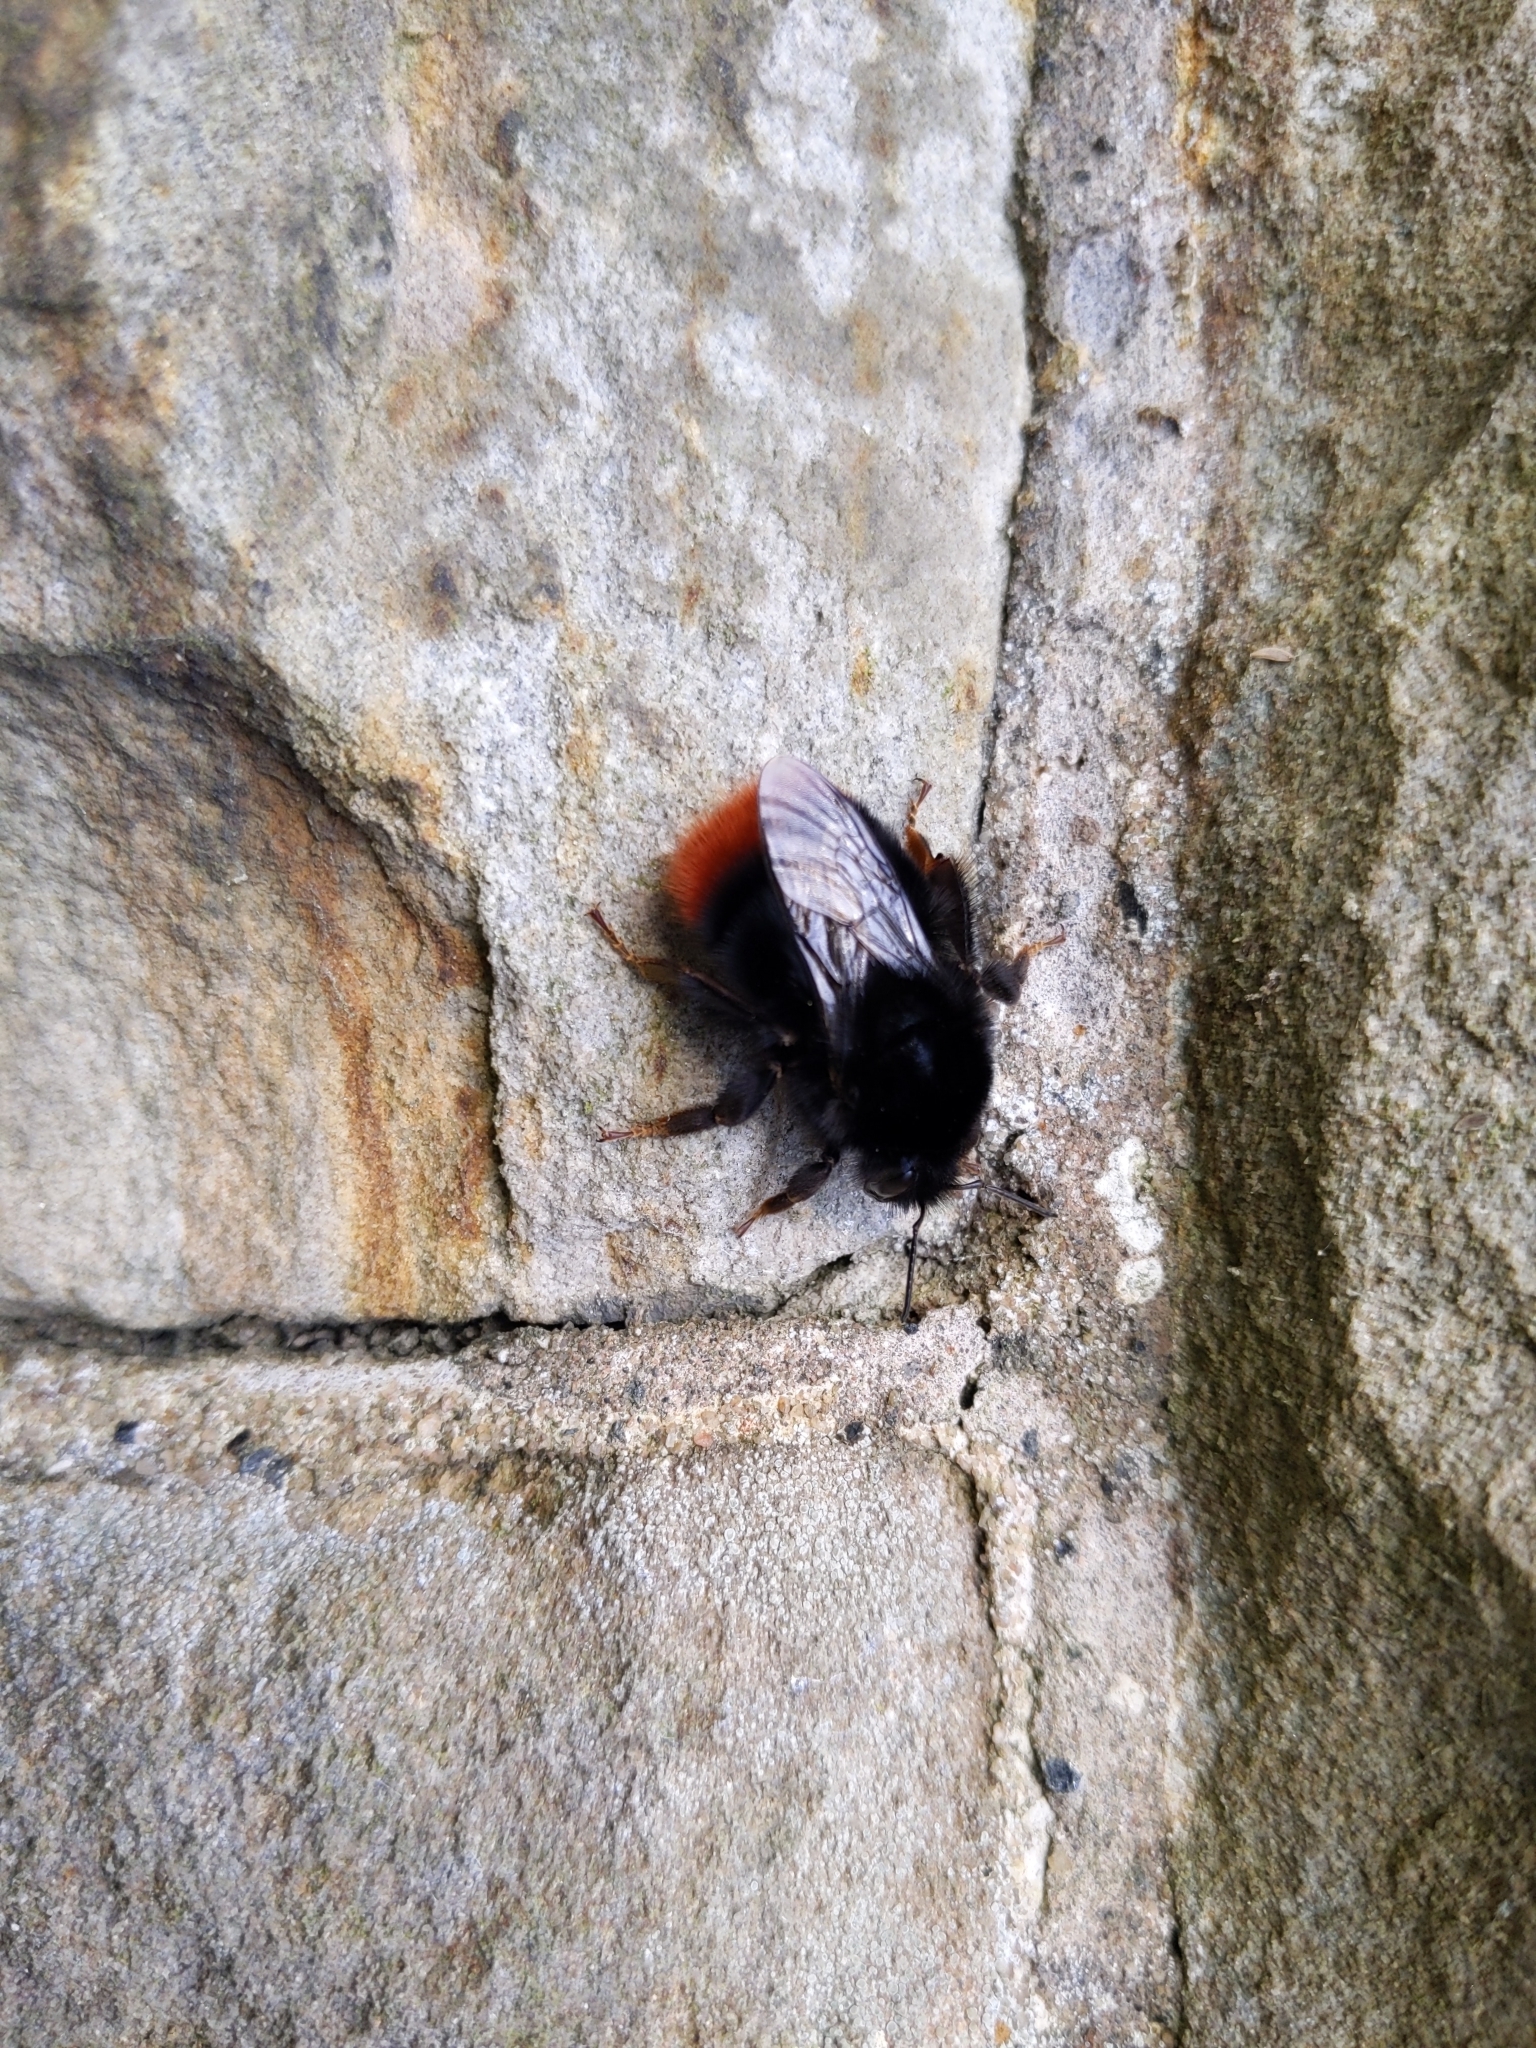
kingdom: Animalia
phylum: Arthropoda
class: Insecta
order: Hymenoptera
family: Apidae
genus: Bombus
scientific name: Bombus lapidarius
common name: Large red-tailed humble-bee
